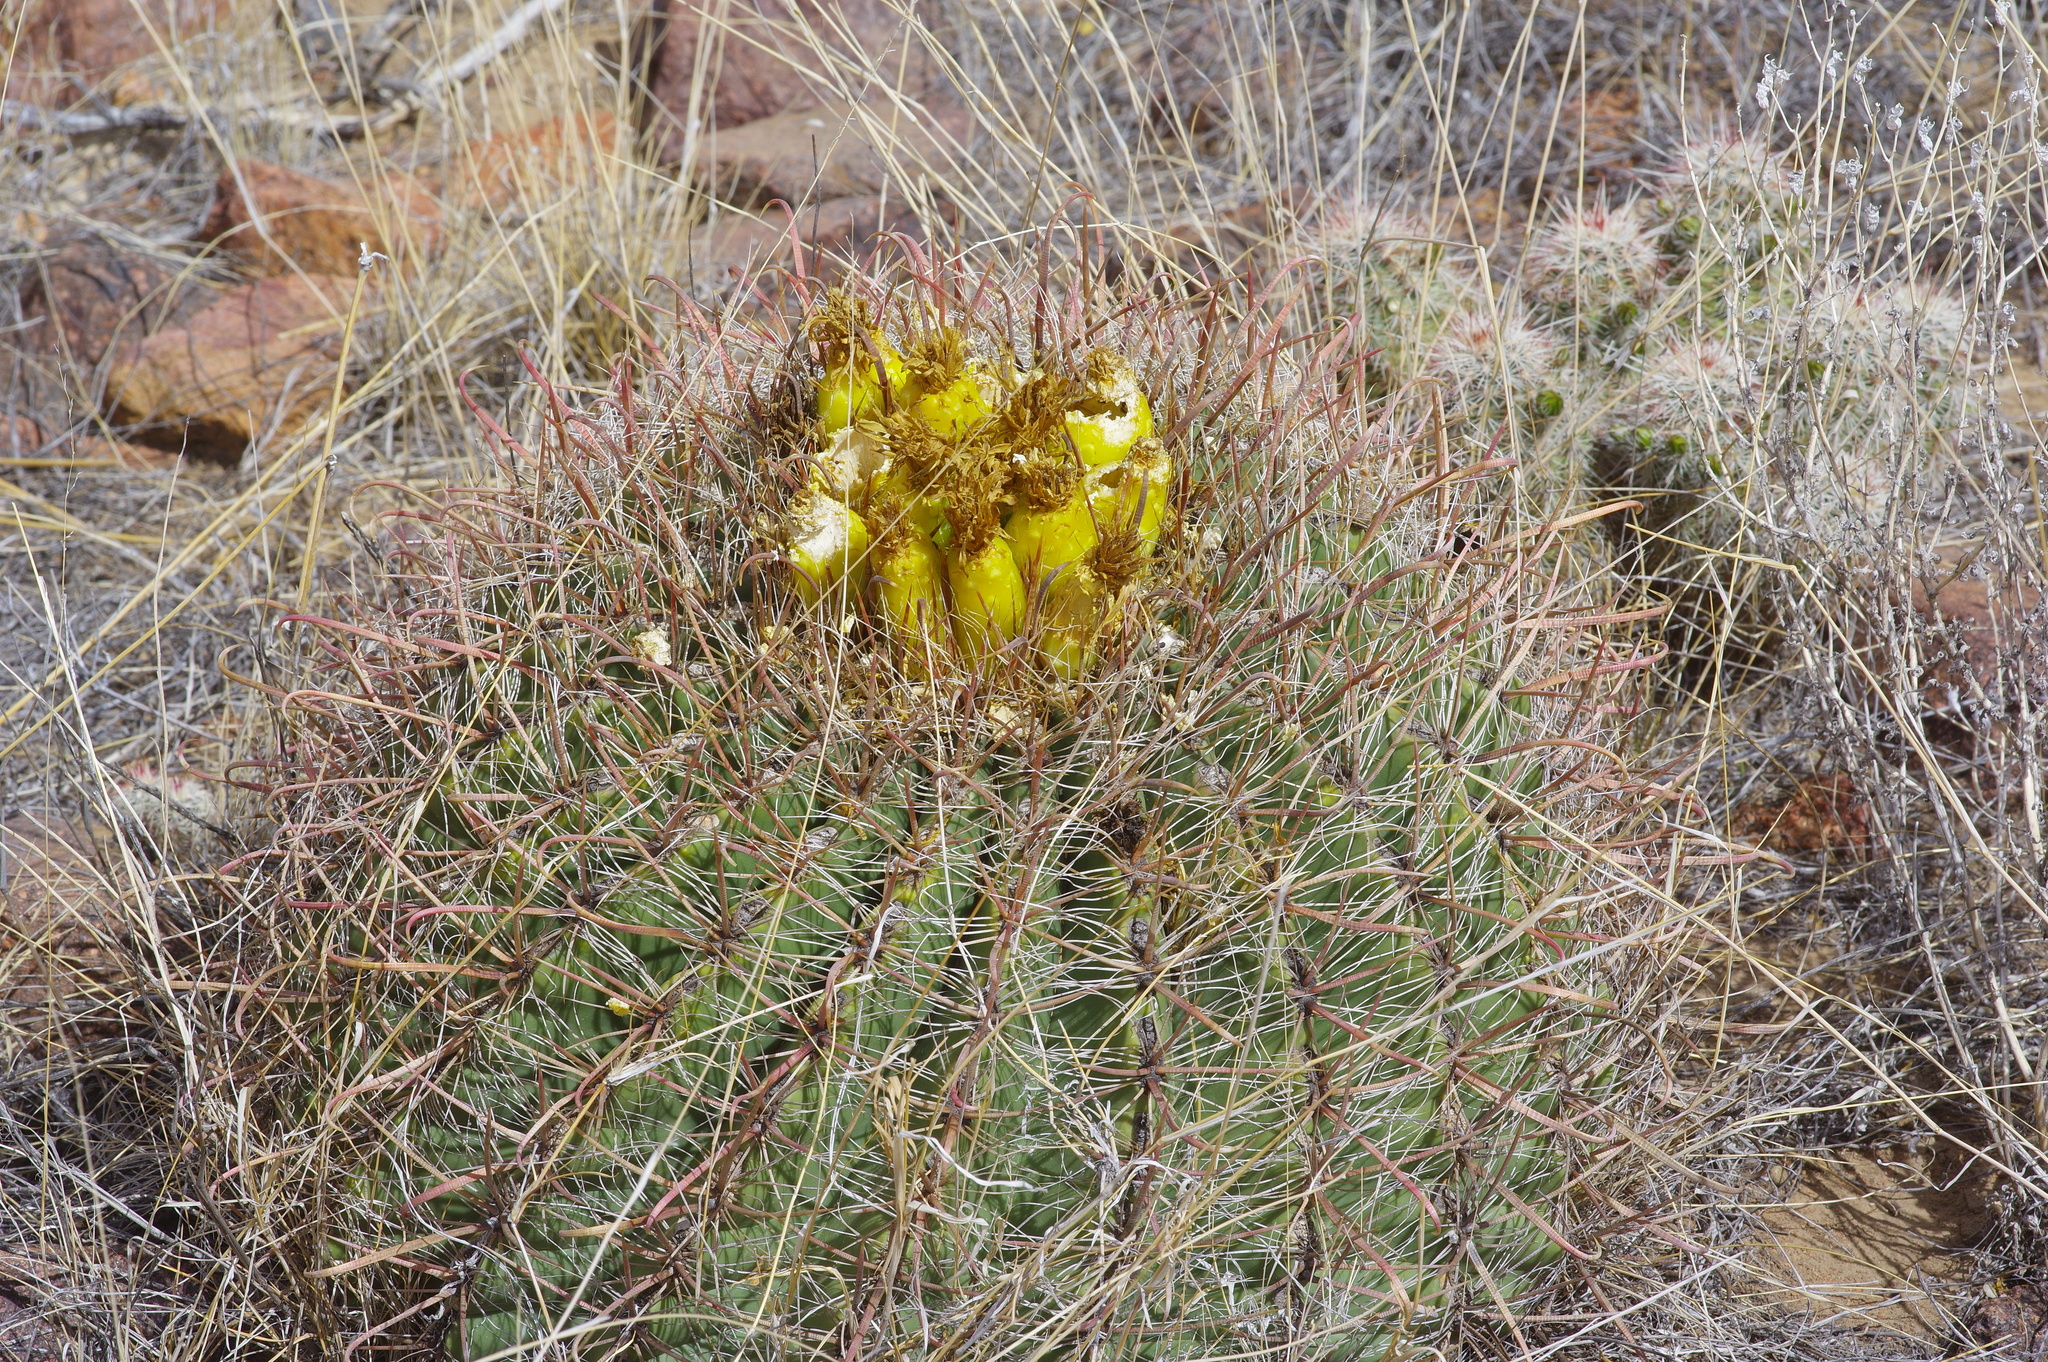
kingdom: Plantae
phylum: Tracheophyta
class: Magnoliopsida
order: Caryophyllales
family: Cactaceae
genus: Ferocactus
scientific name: Ferocactus wislizeni
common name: Candy barrel cactus
